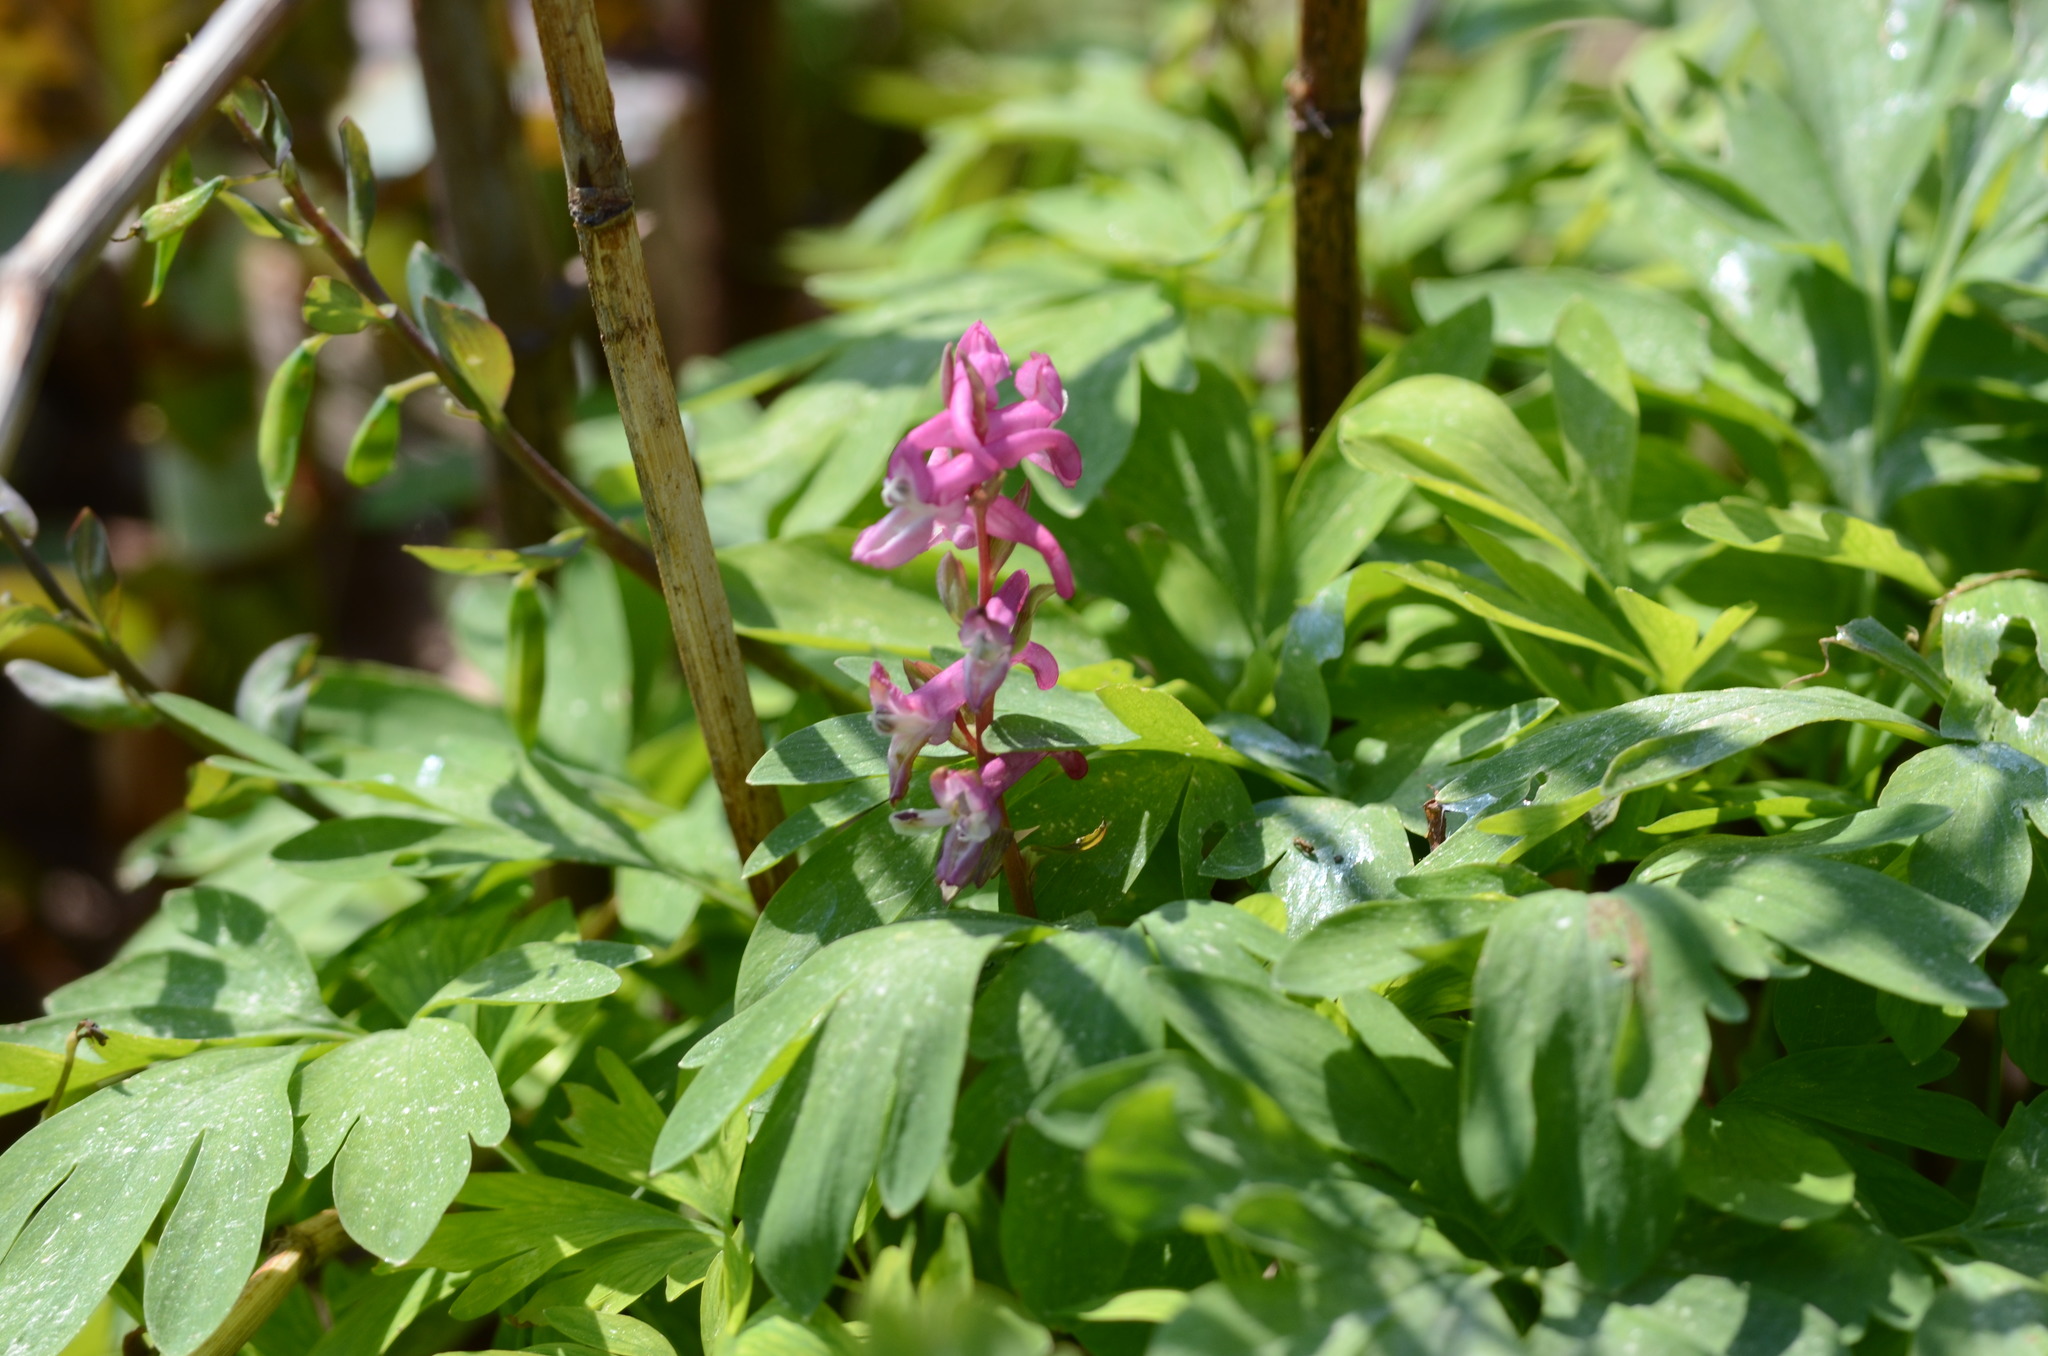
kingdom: Plantae
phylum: Tracheophyta
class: Magnoliopsida
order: Ranunculales
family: Papaveraceae
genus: Corydalis
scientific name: Corydalis cava
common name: Hollowroot
